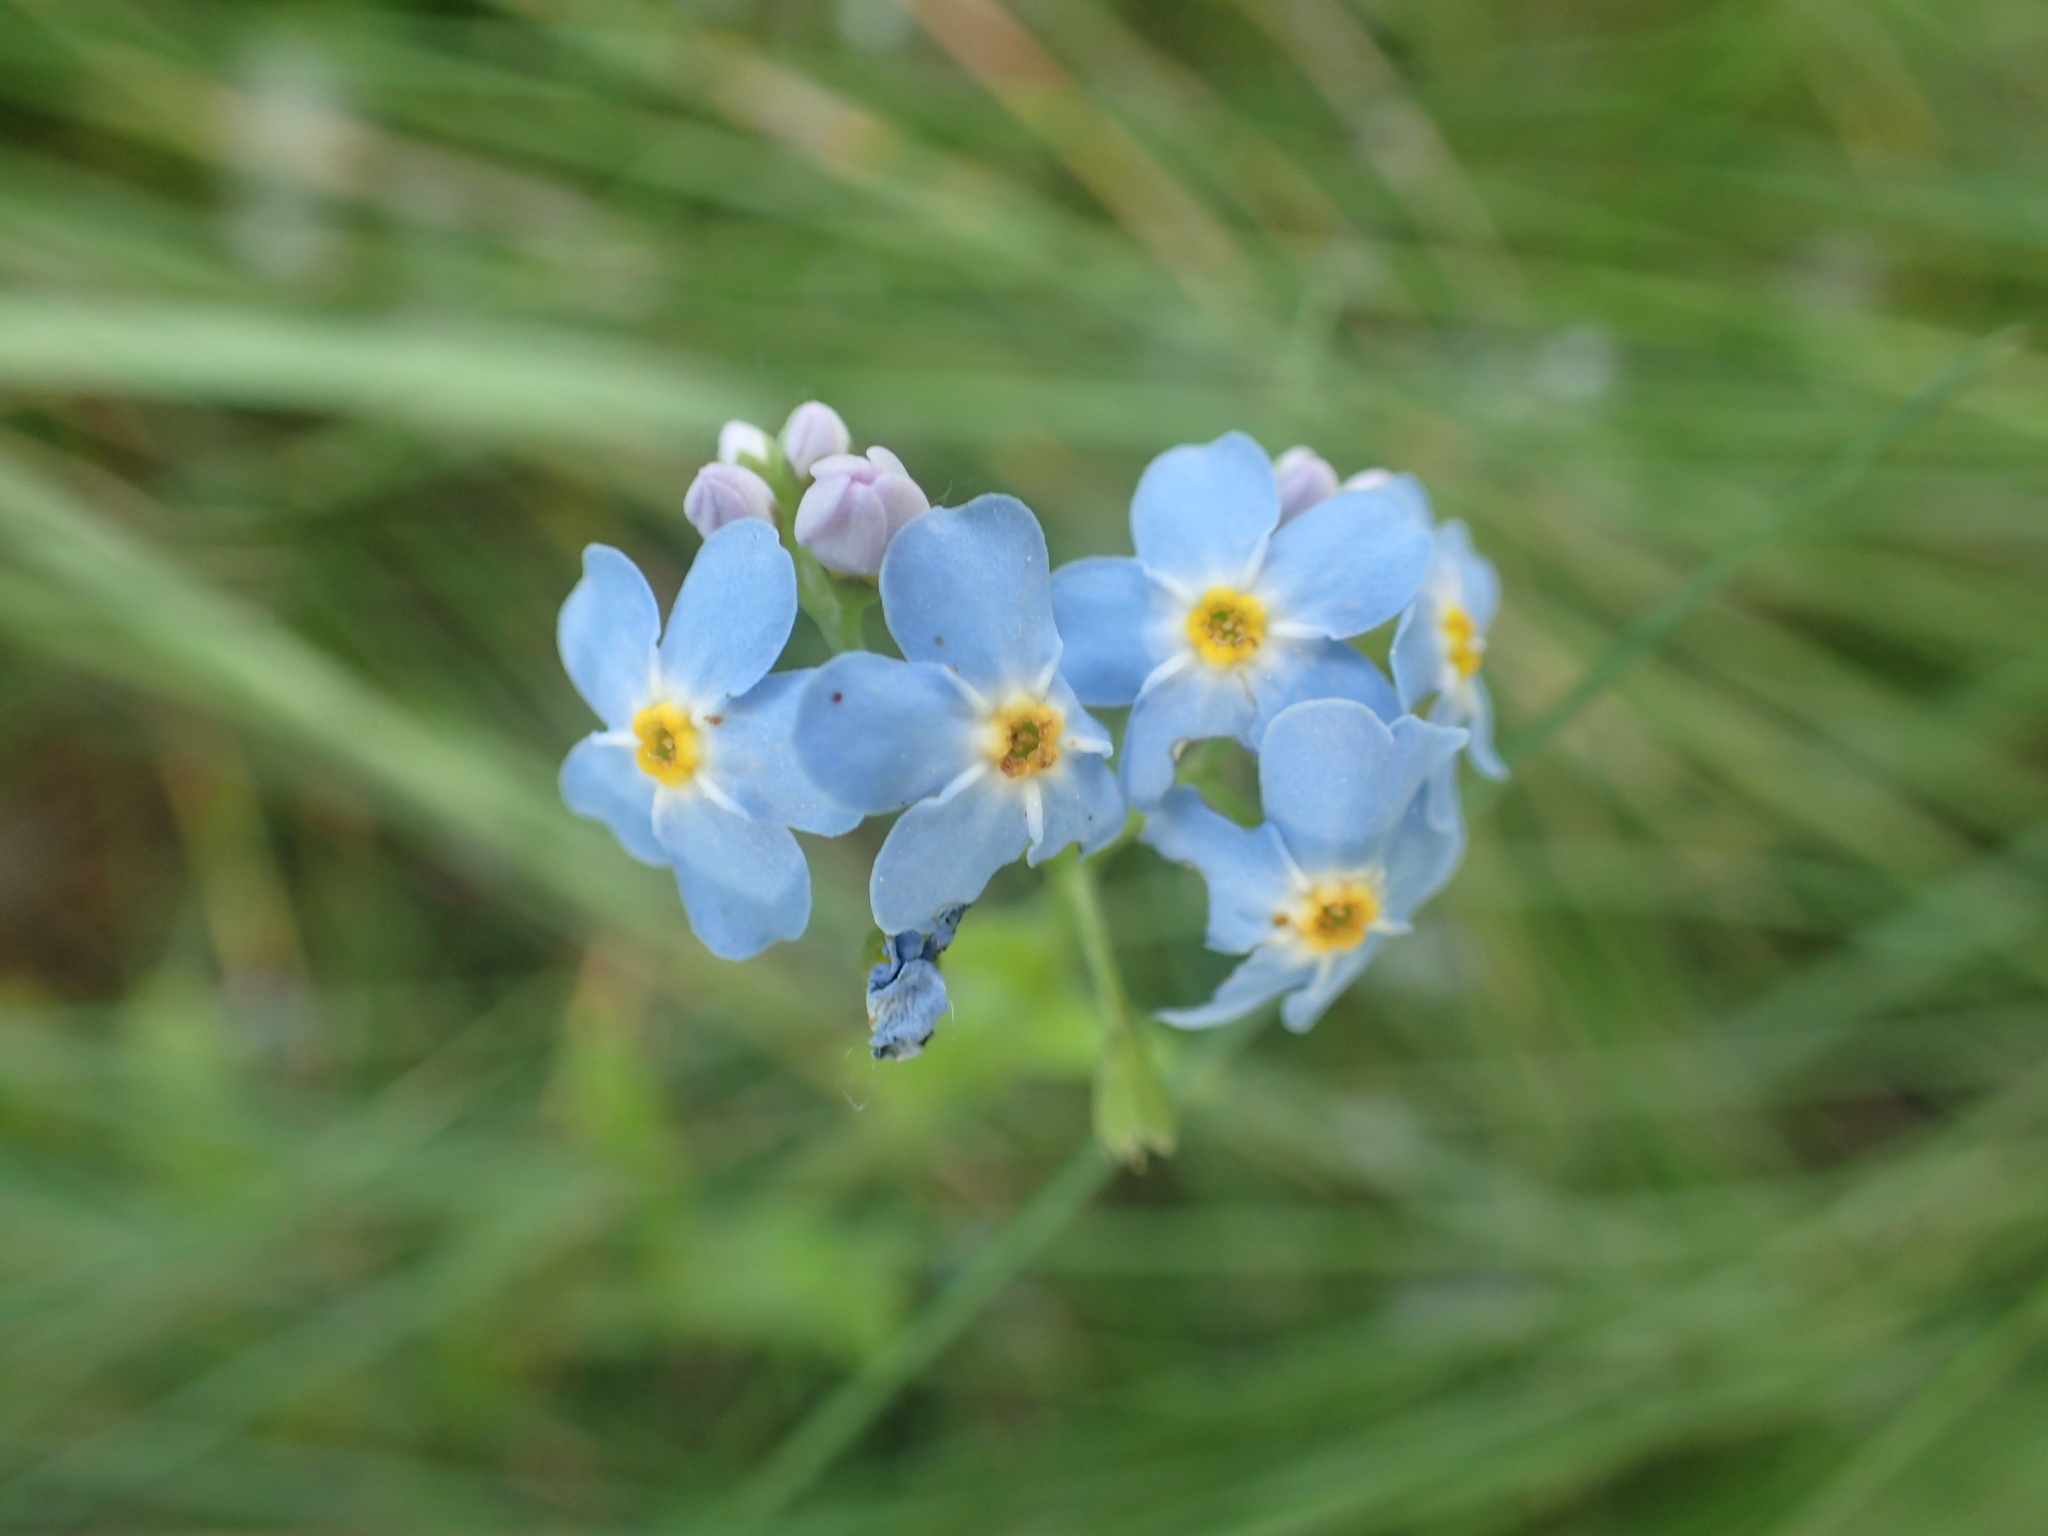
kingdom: Plantae
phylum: Tracheophyta
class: Magnoliopsida
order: Boraginales
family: Boraginaceae
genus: Myosotis
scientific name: Myosotis scorpioides
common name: Water forget-me-not
